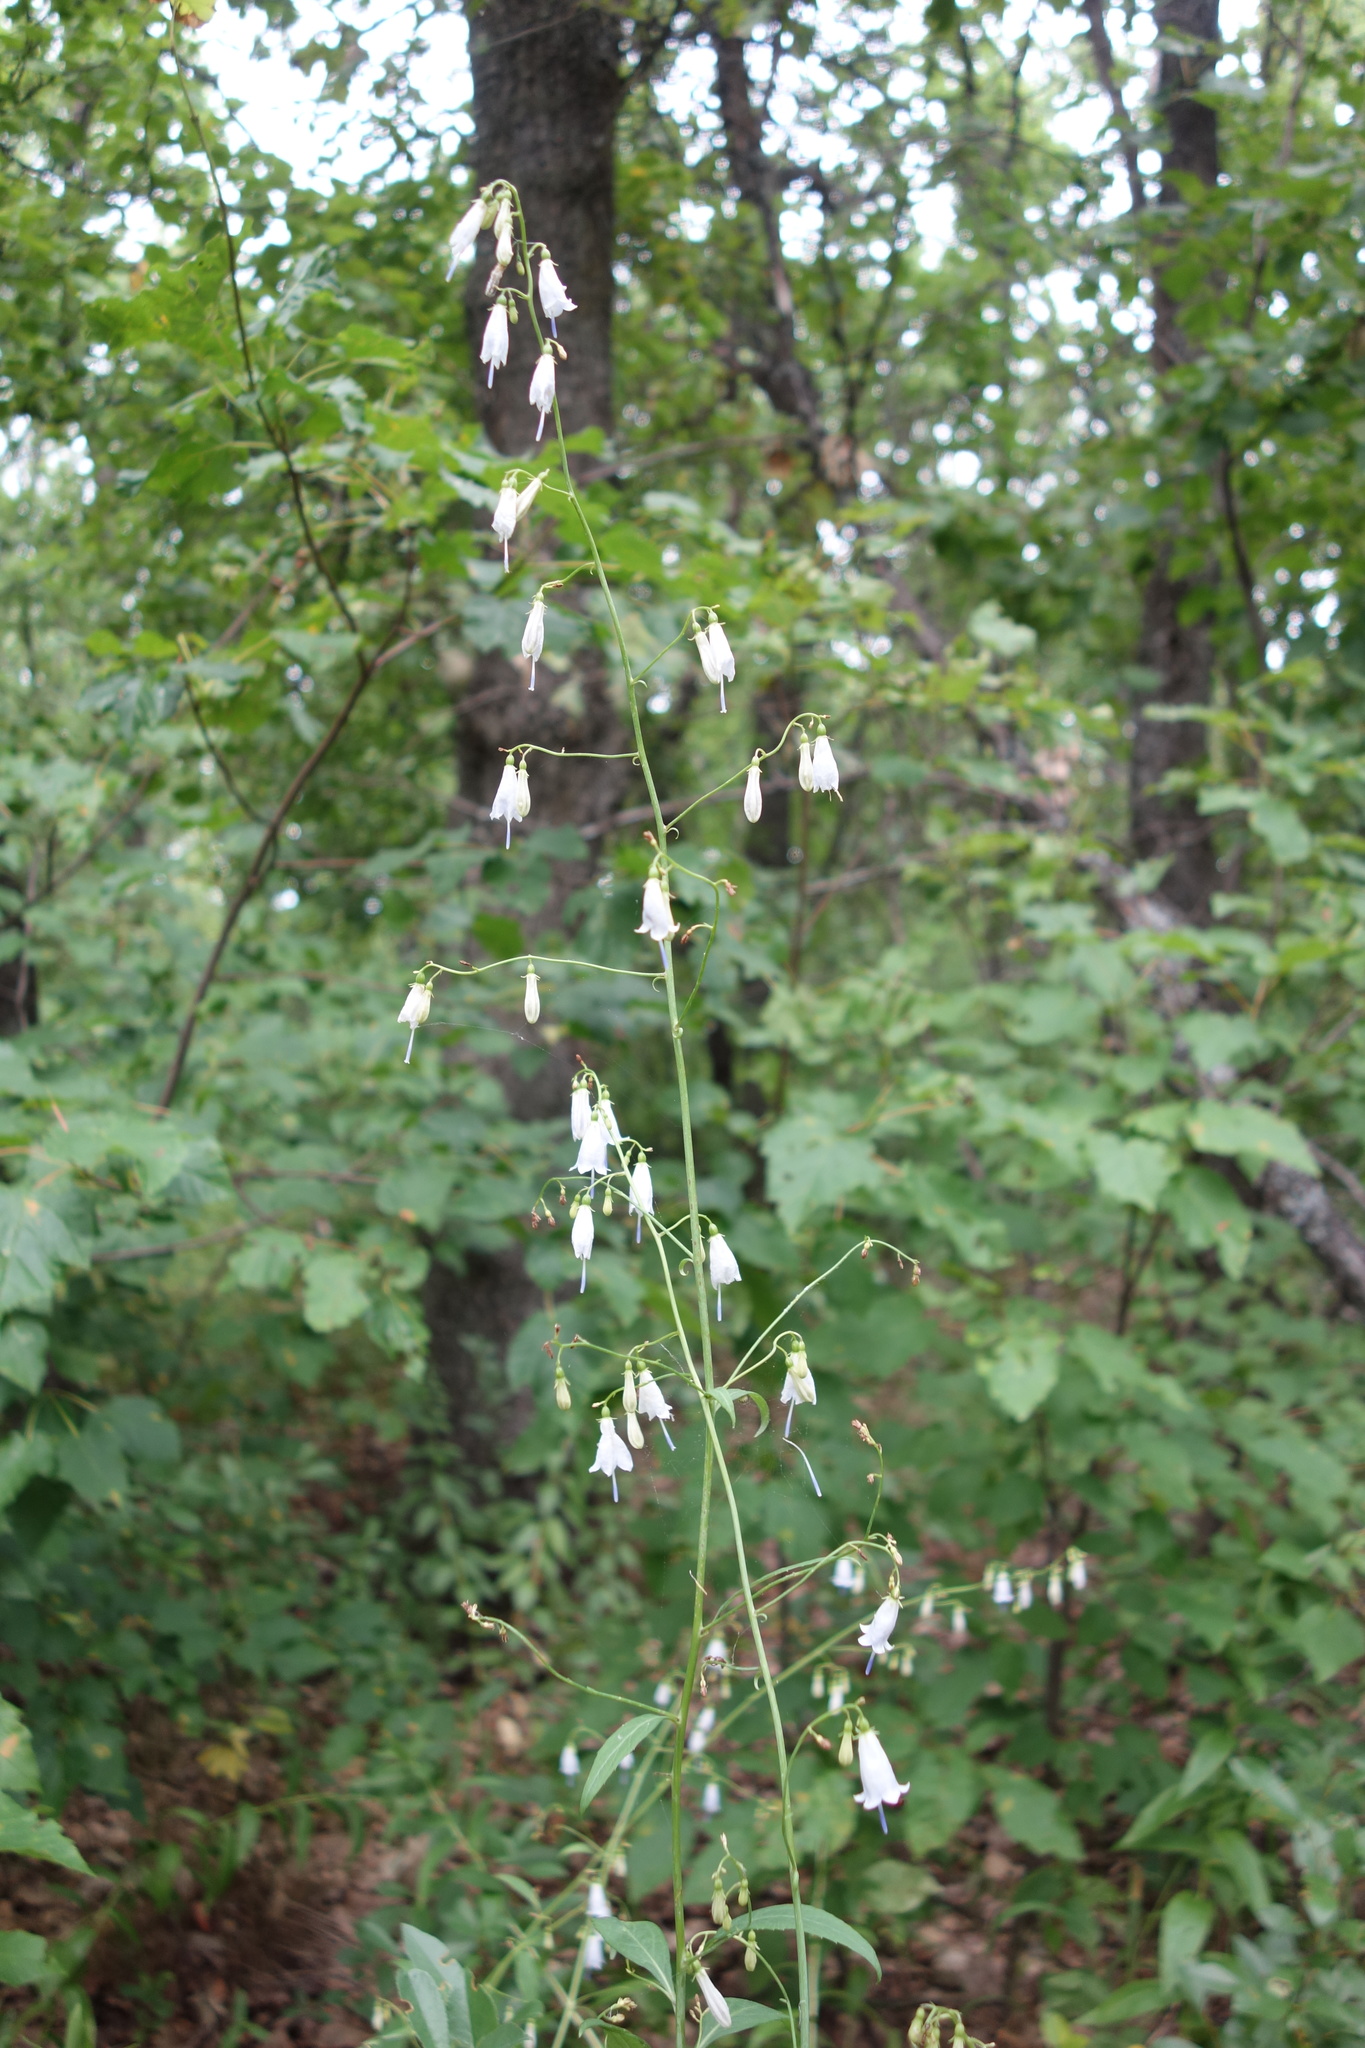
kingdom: Plantae
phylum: Tracheophyta
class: Magnoliopsida
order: Asterales
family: Campanulaceae
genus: Adenophora
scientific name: Adenophora liliifolia
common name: Lilyleaf ladybells
